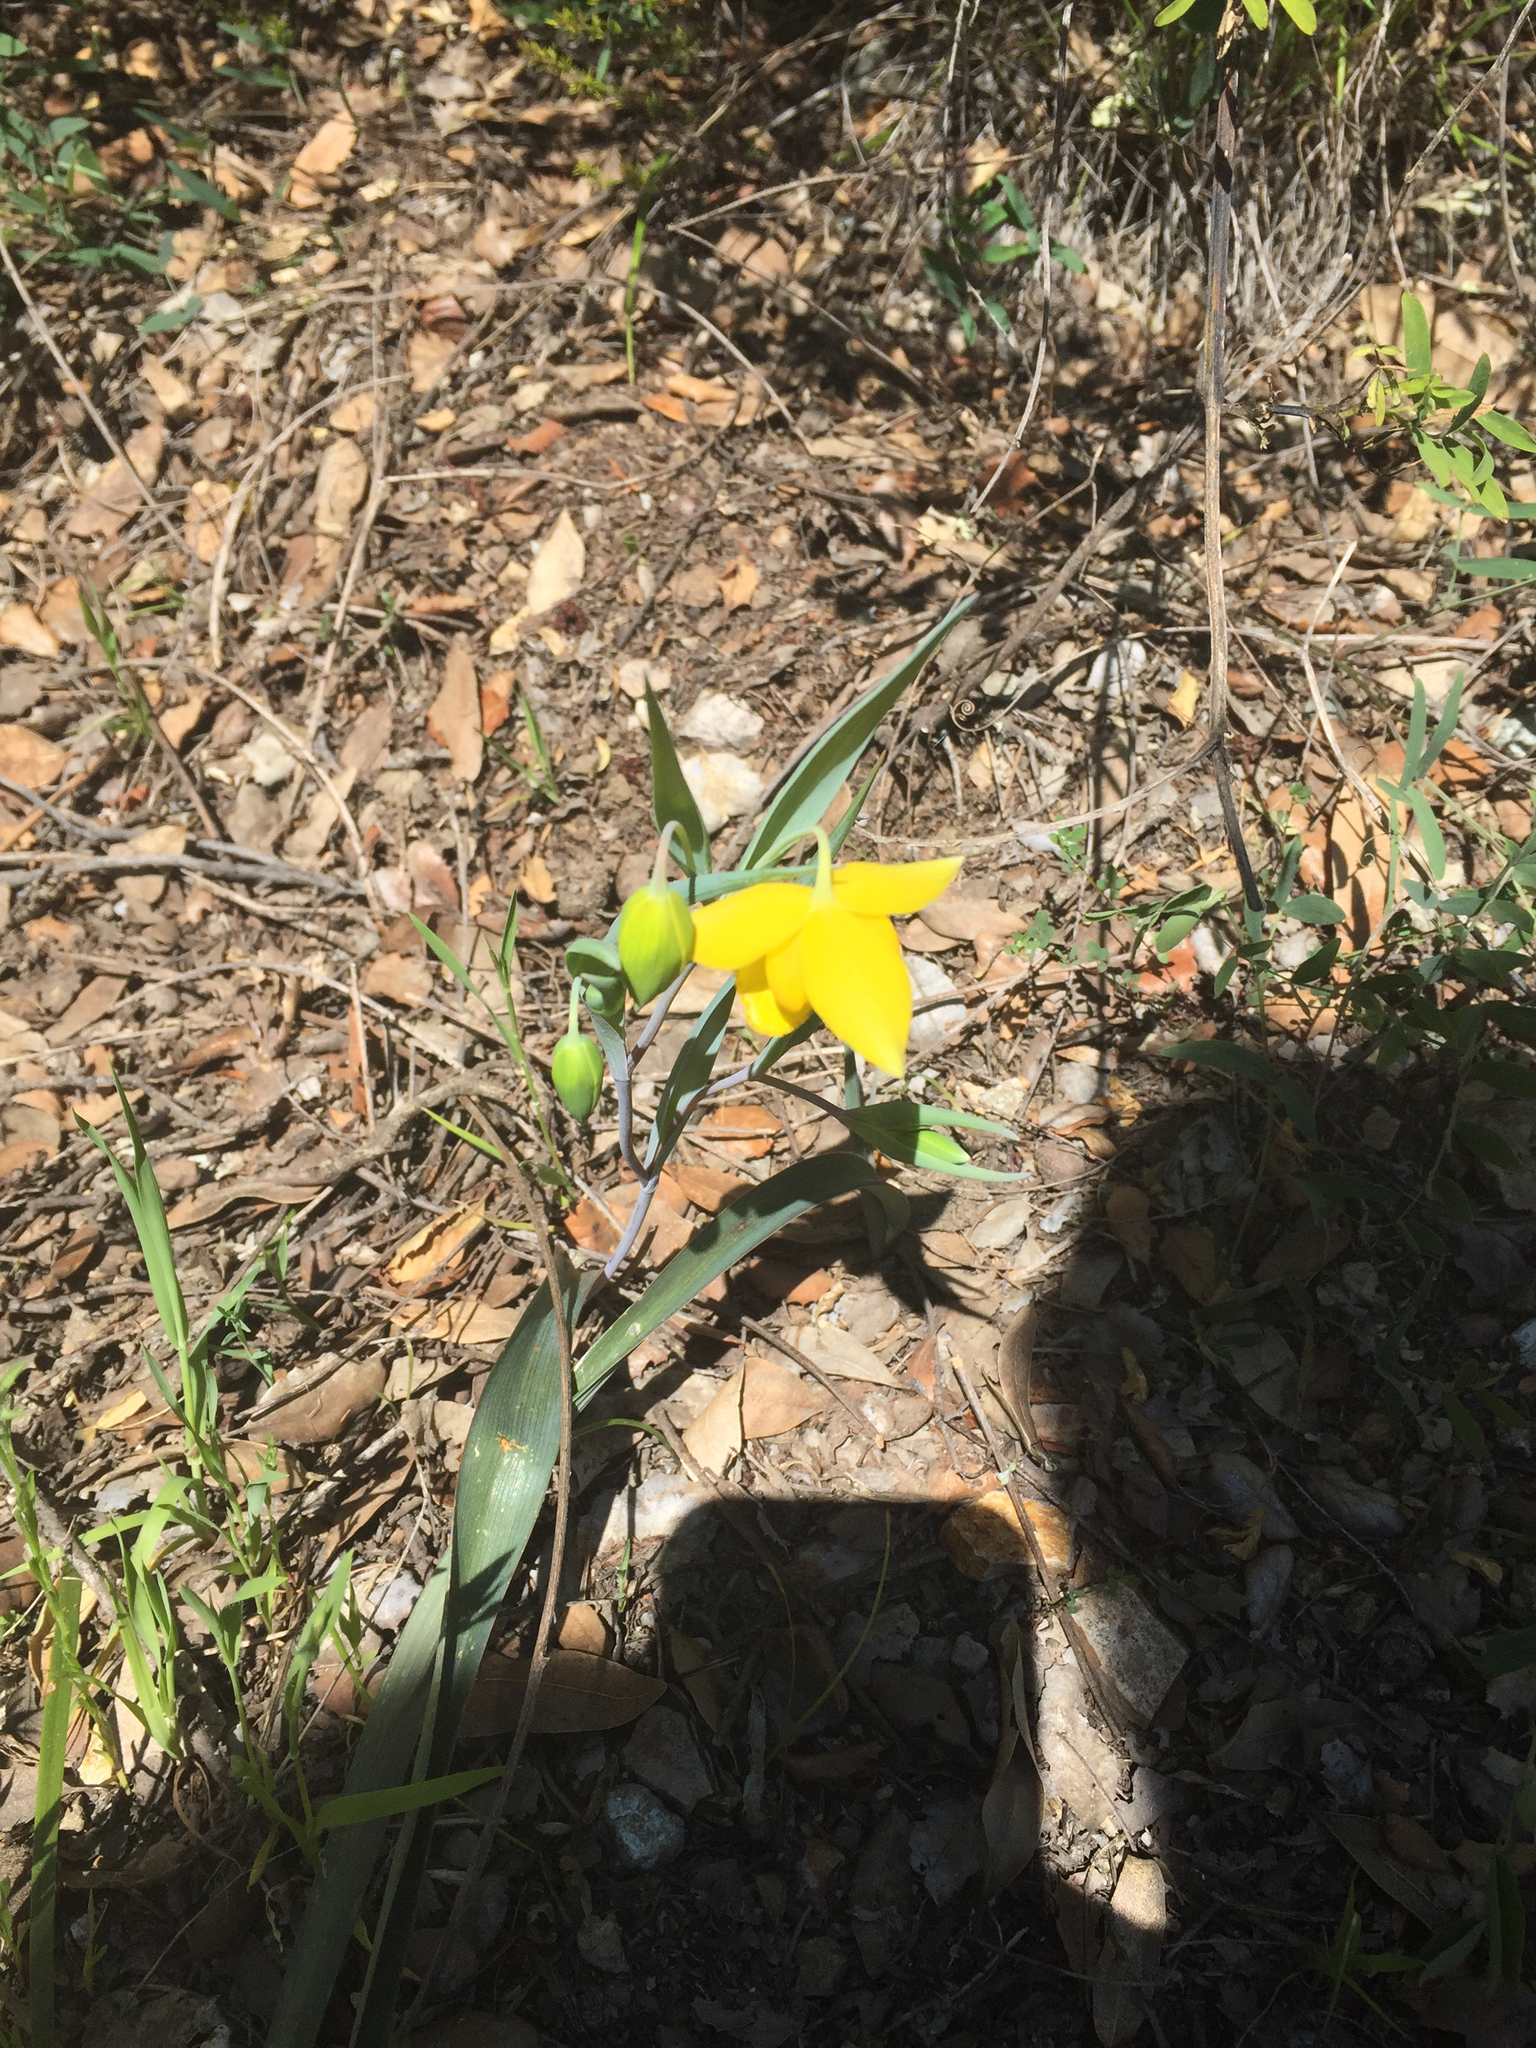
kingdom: Plantae
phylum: Tracheophyta
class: Liliopsida
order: Liliales
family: Liliaceae
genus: Calochortus
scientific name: Calochortus amabilis
